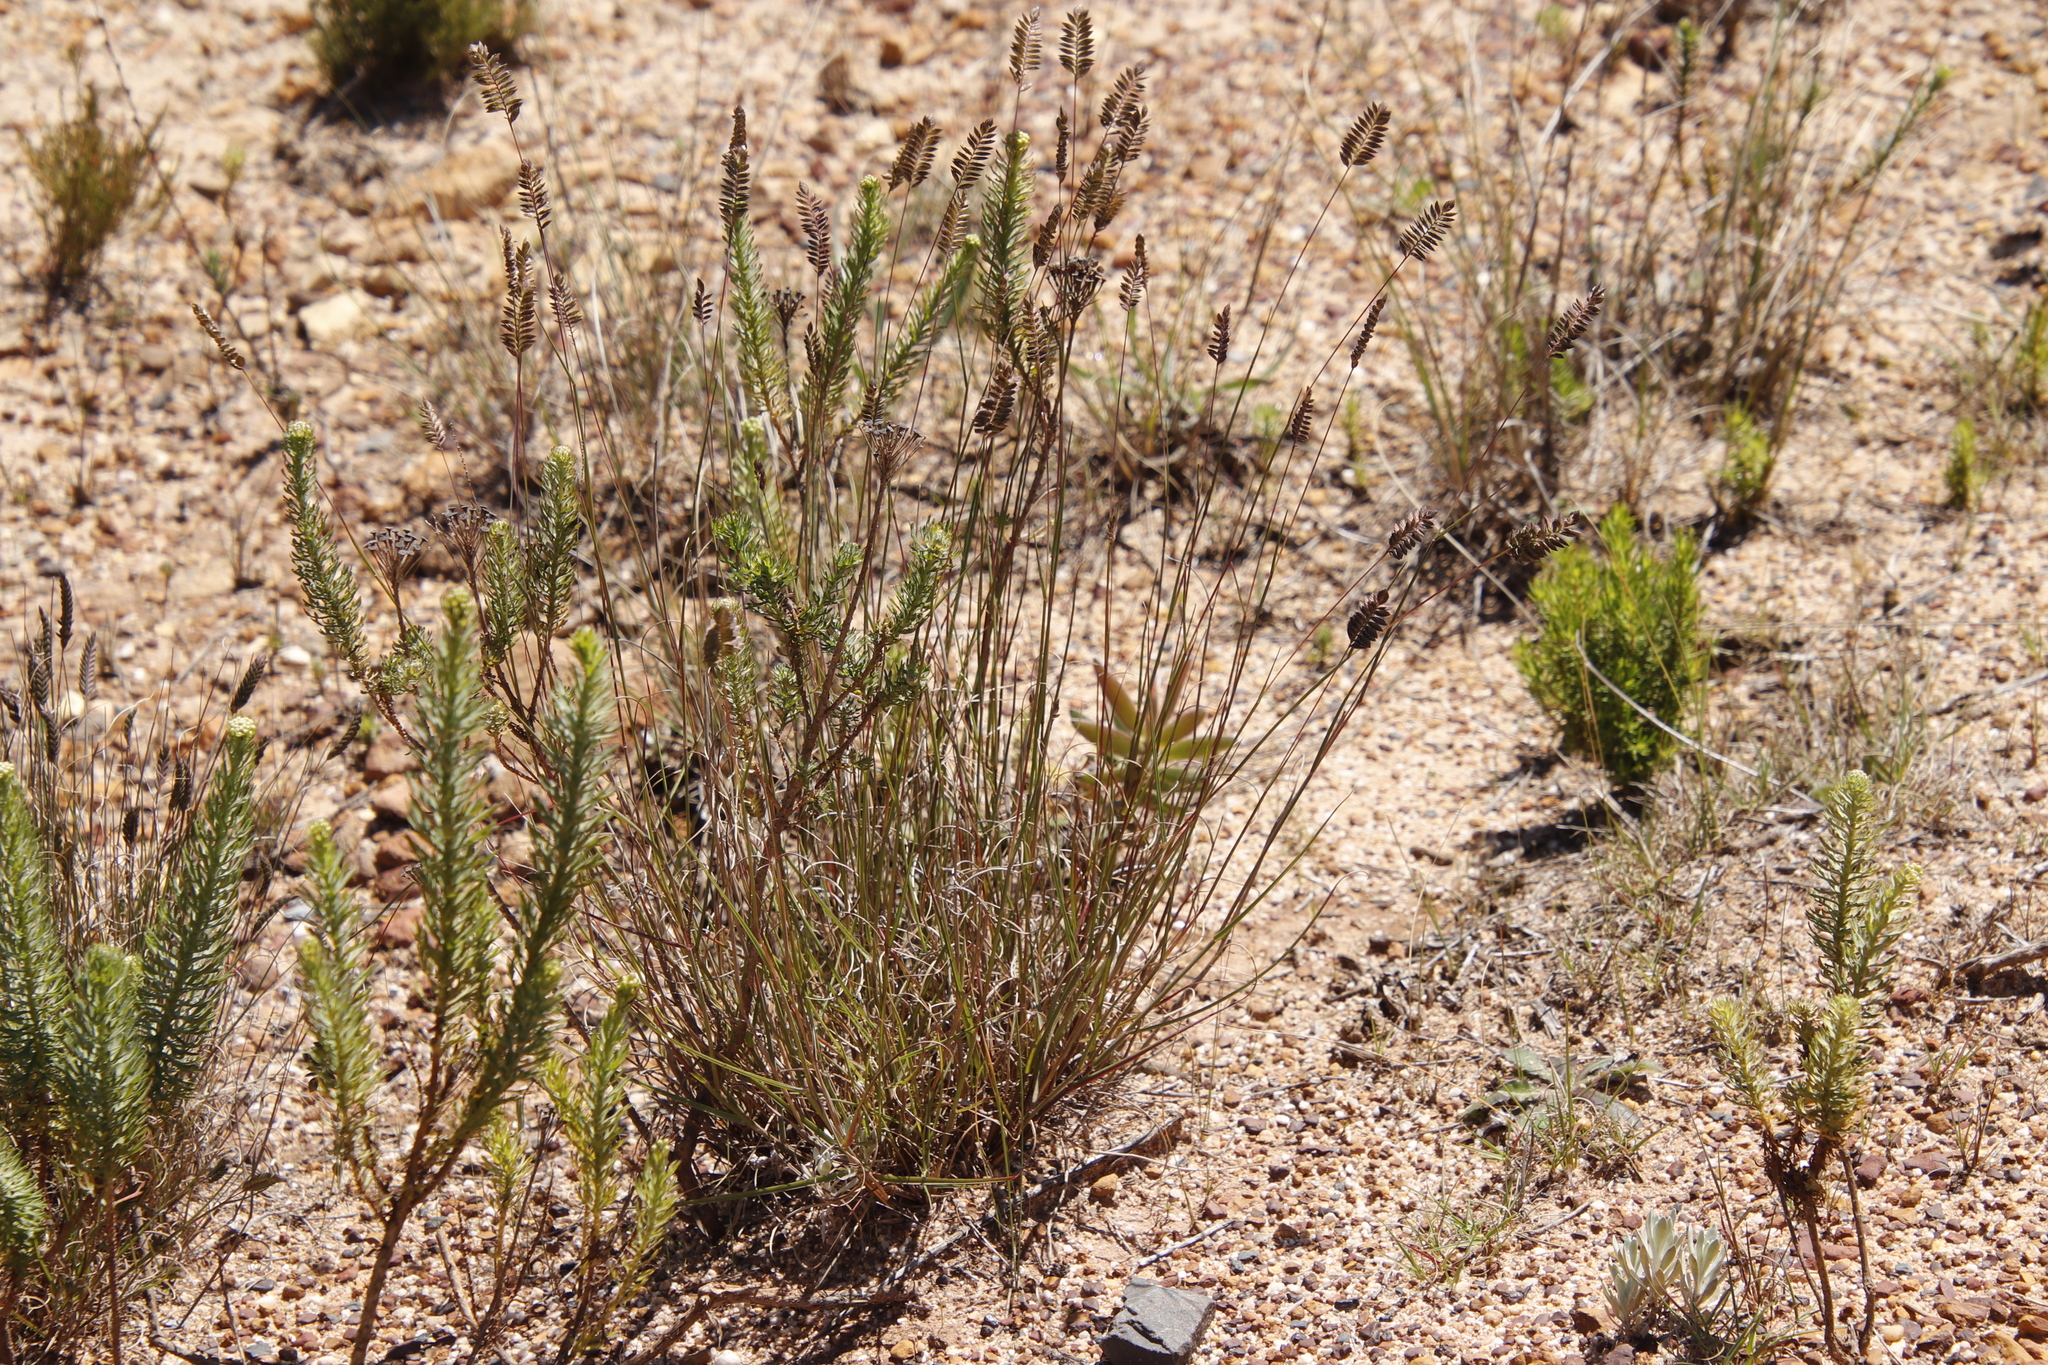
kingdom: Plantae
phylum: Tracheophyta
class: Liliopsida
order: Poales
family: Poaceae
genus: Tribolium
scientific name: Tribolium uniolae
